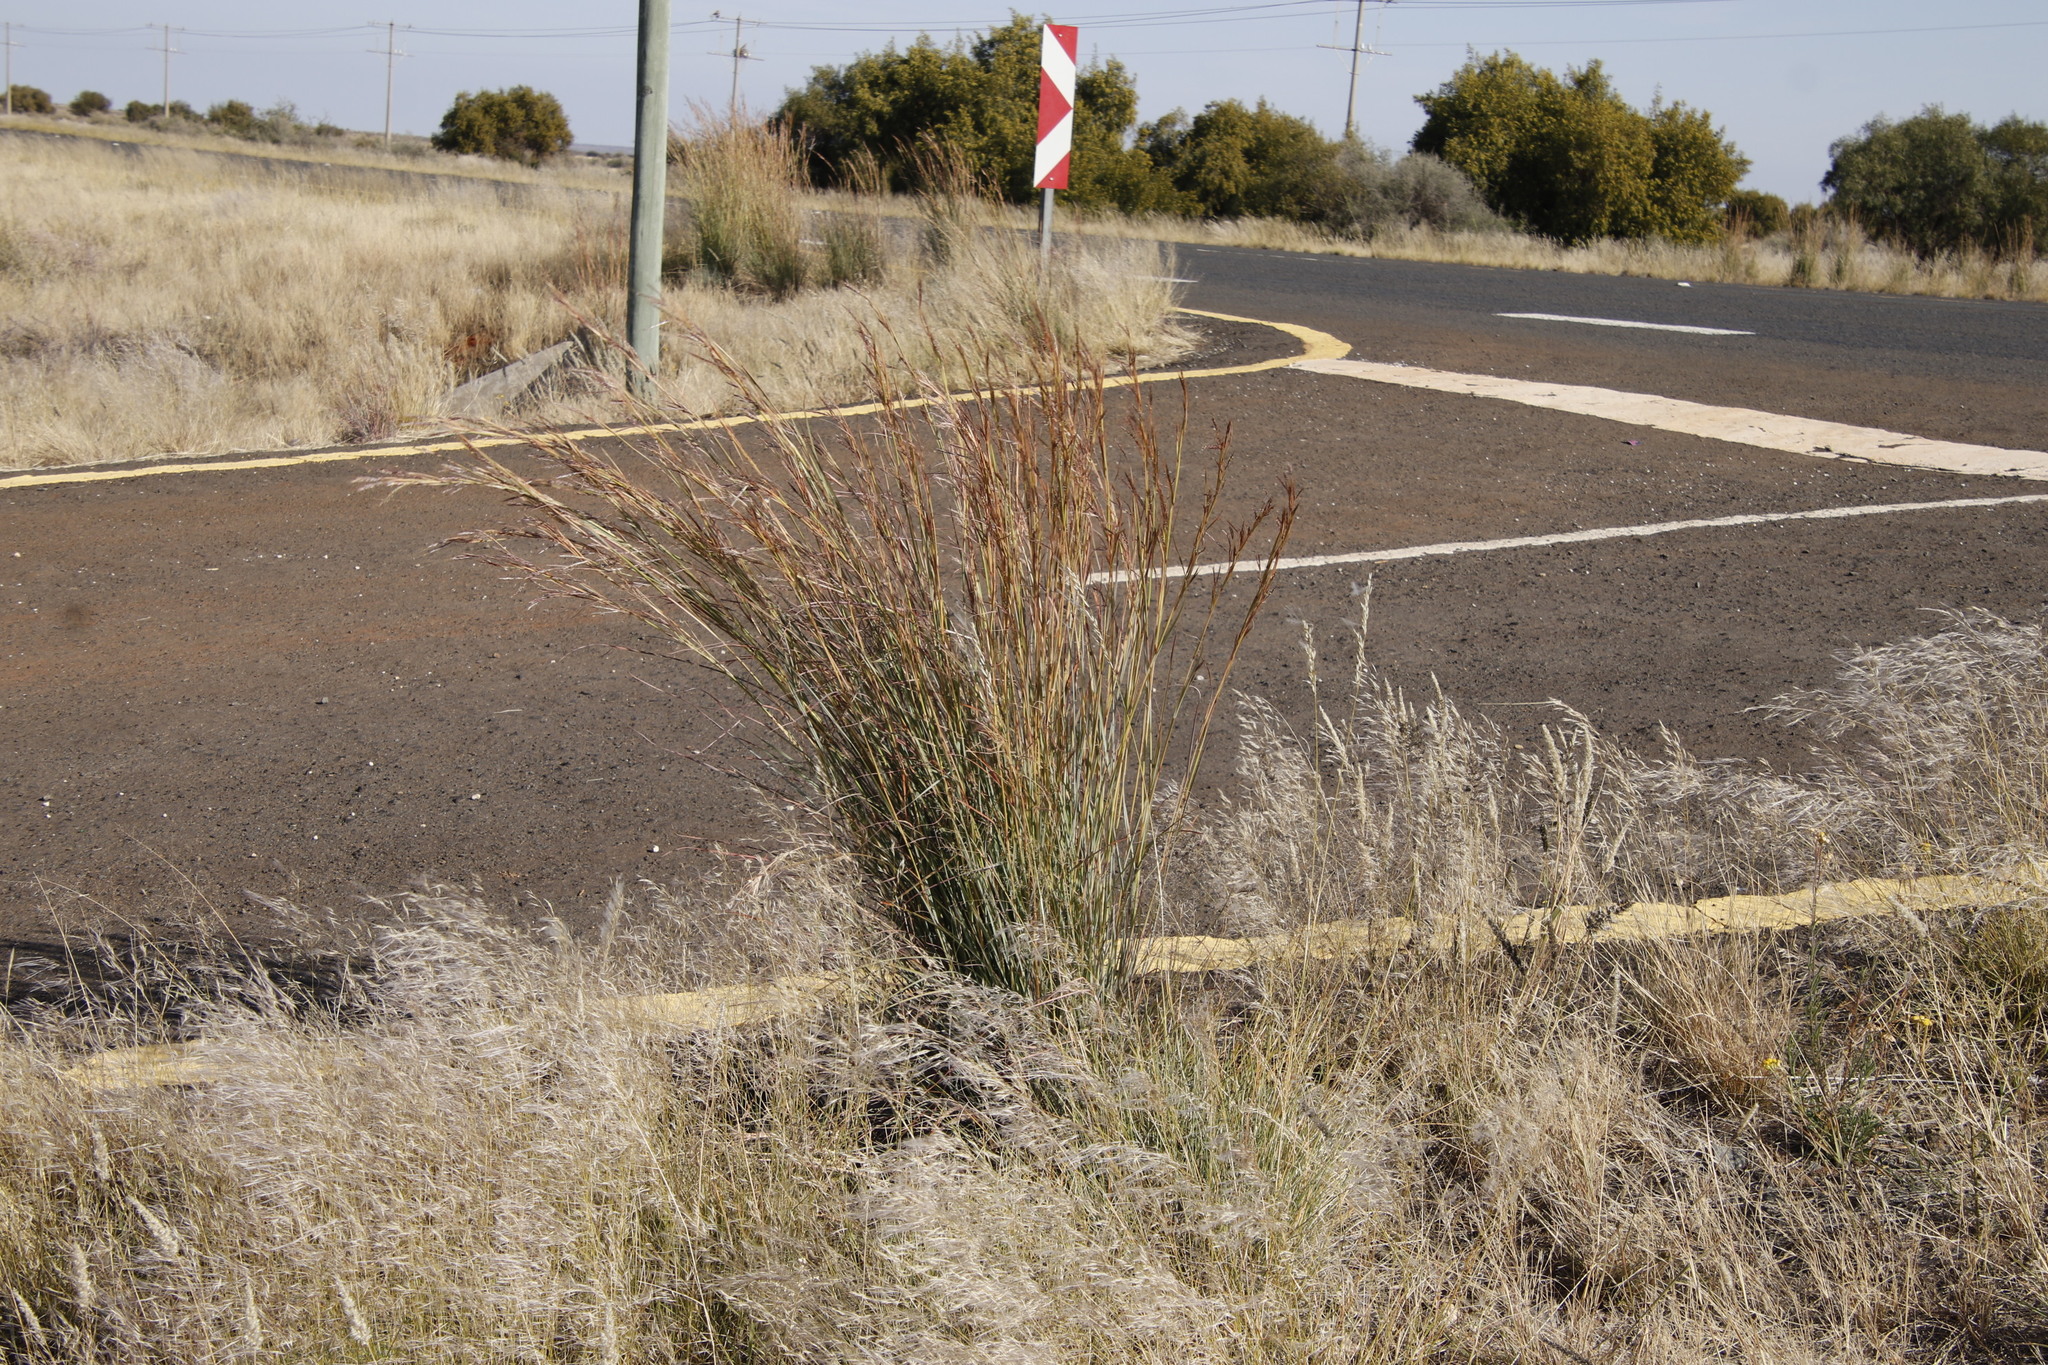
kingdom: Plantae
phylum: Tracheophyta
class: Liliopsida
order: Poales
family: Poaceae
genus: Hyparrhenia
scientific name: Hyparrhenia hirta
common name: Thatching grass
